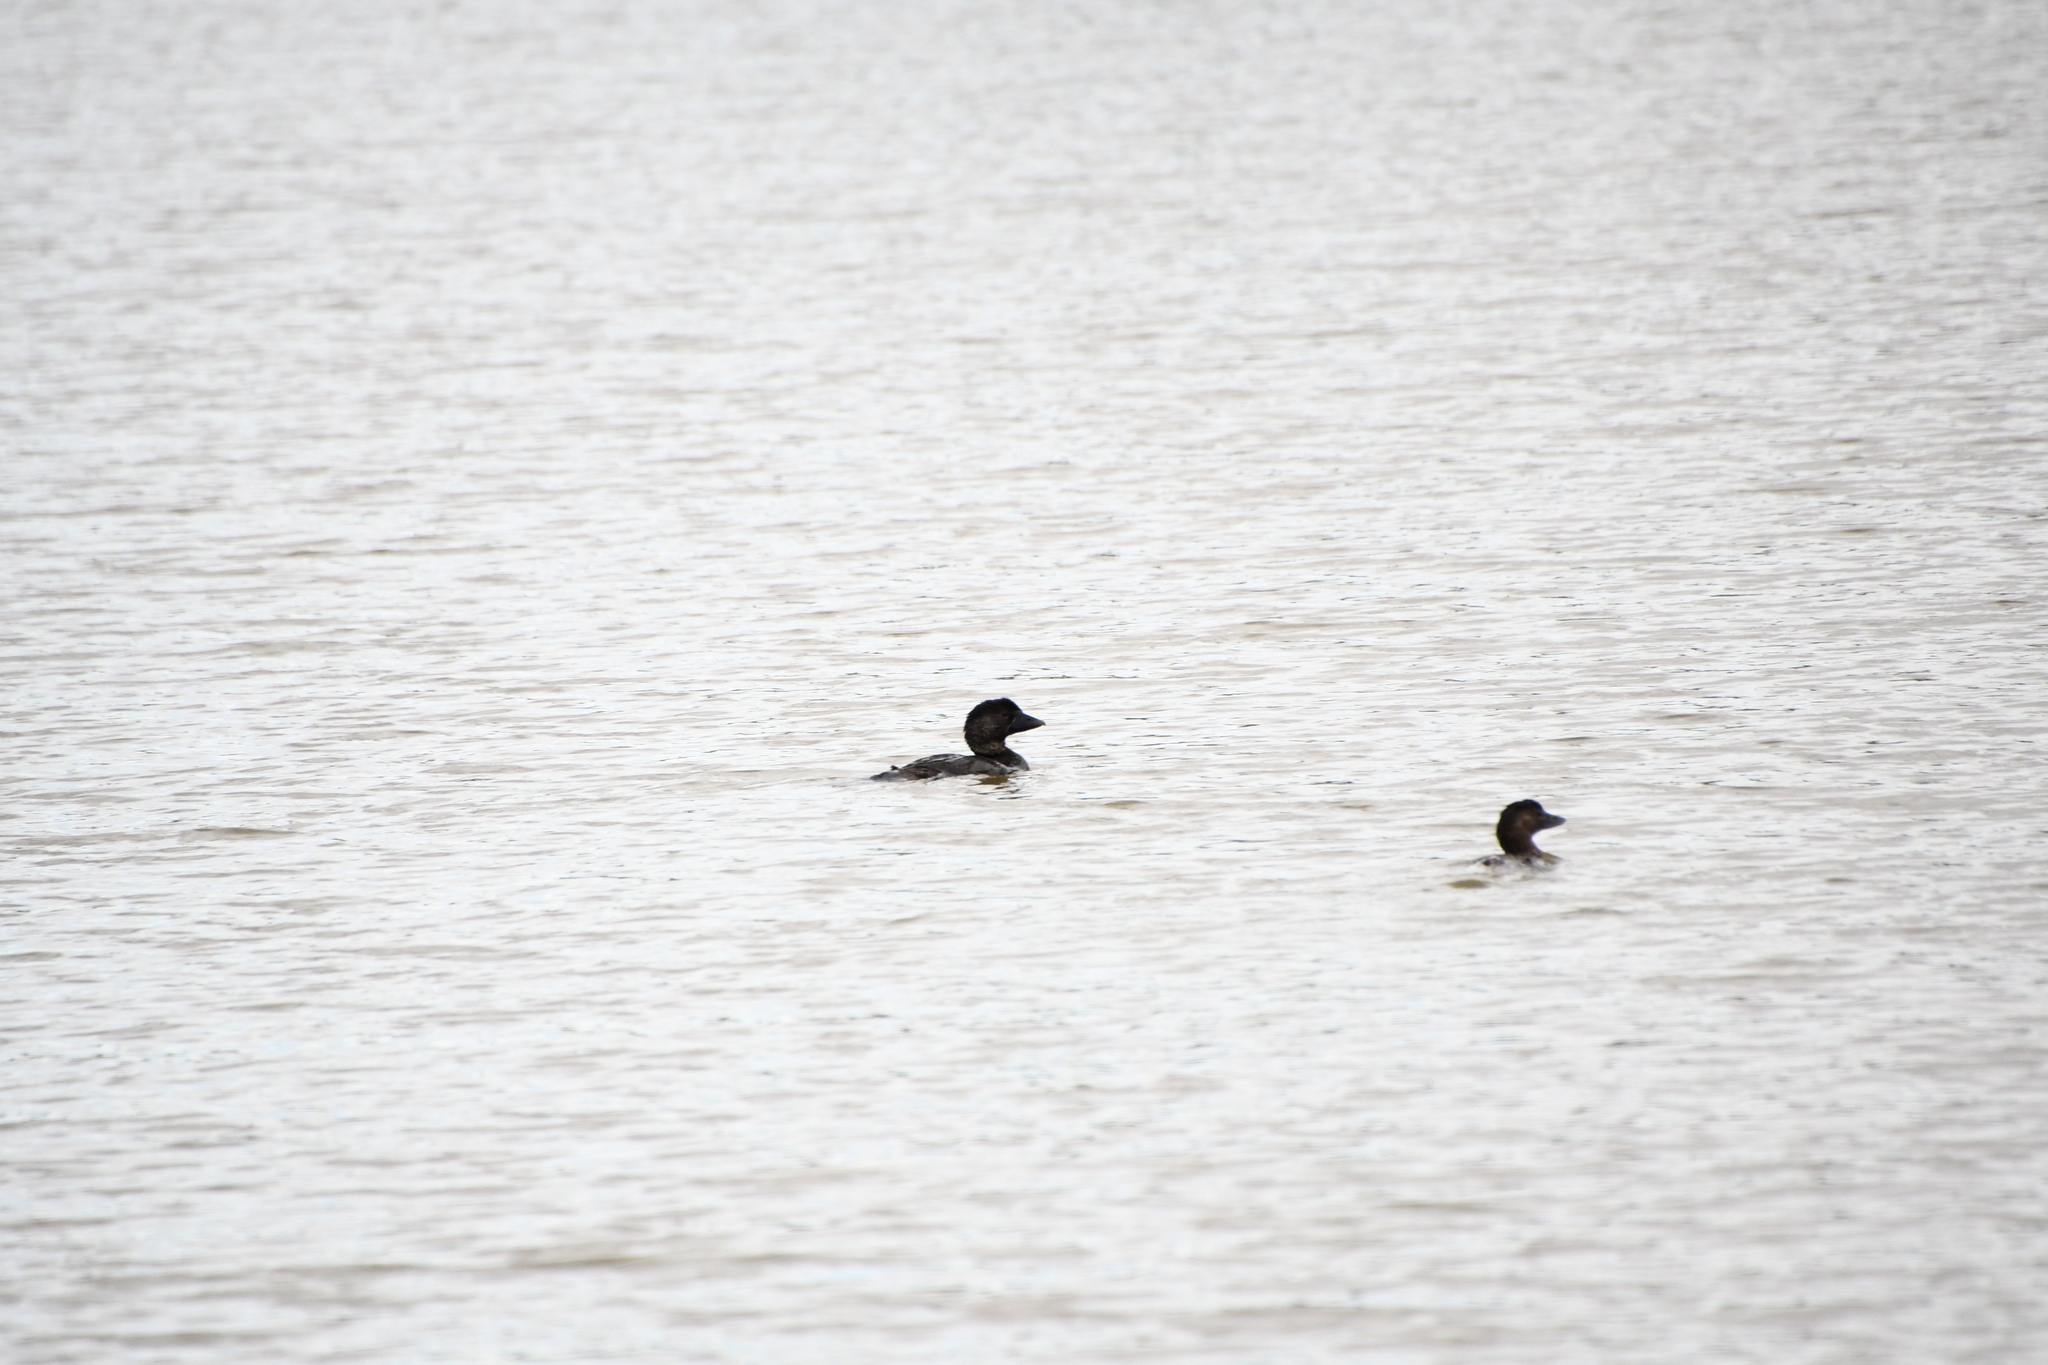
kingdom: Animalia
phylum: Chordata
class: Aves
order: Anseriformes
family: Anatidae
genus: Biziura
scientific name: Biziura lobata
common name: Musk duck
